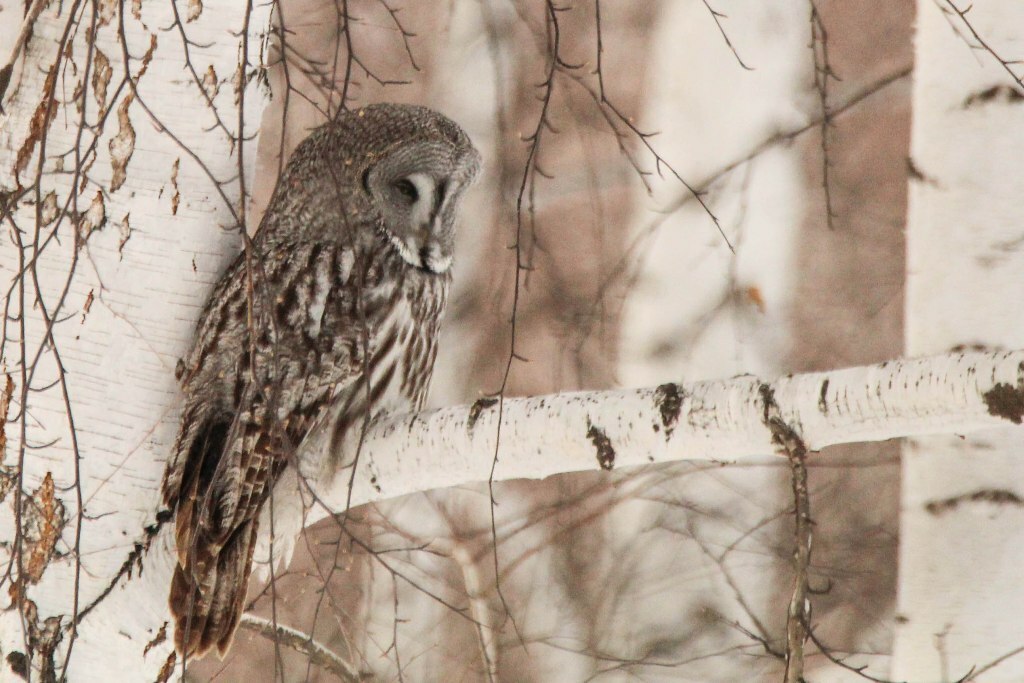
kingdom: Animalia
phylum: Chordata
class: Aves
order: Strigiformes
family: Strigidae
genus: Strix
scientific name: Strix nebulosa
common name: Great grey owl
